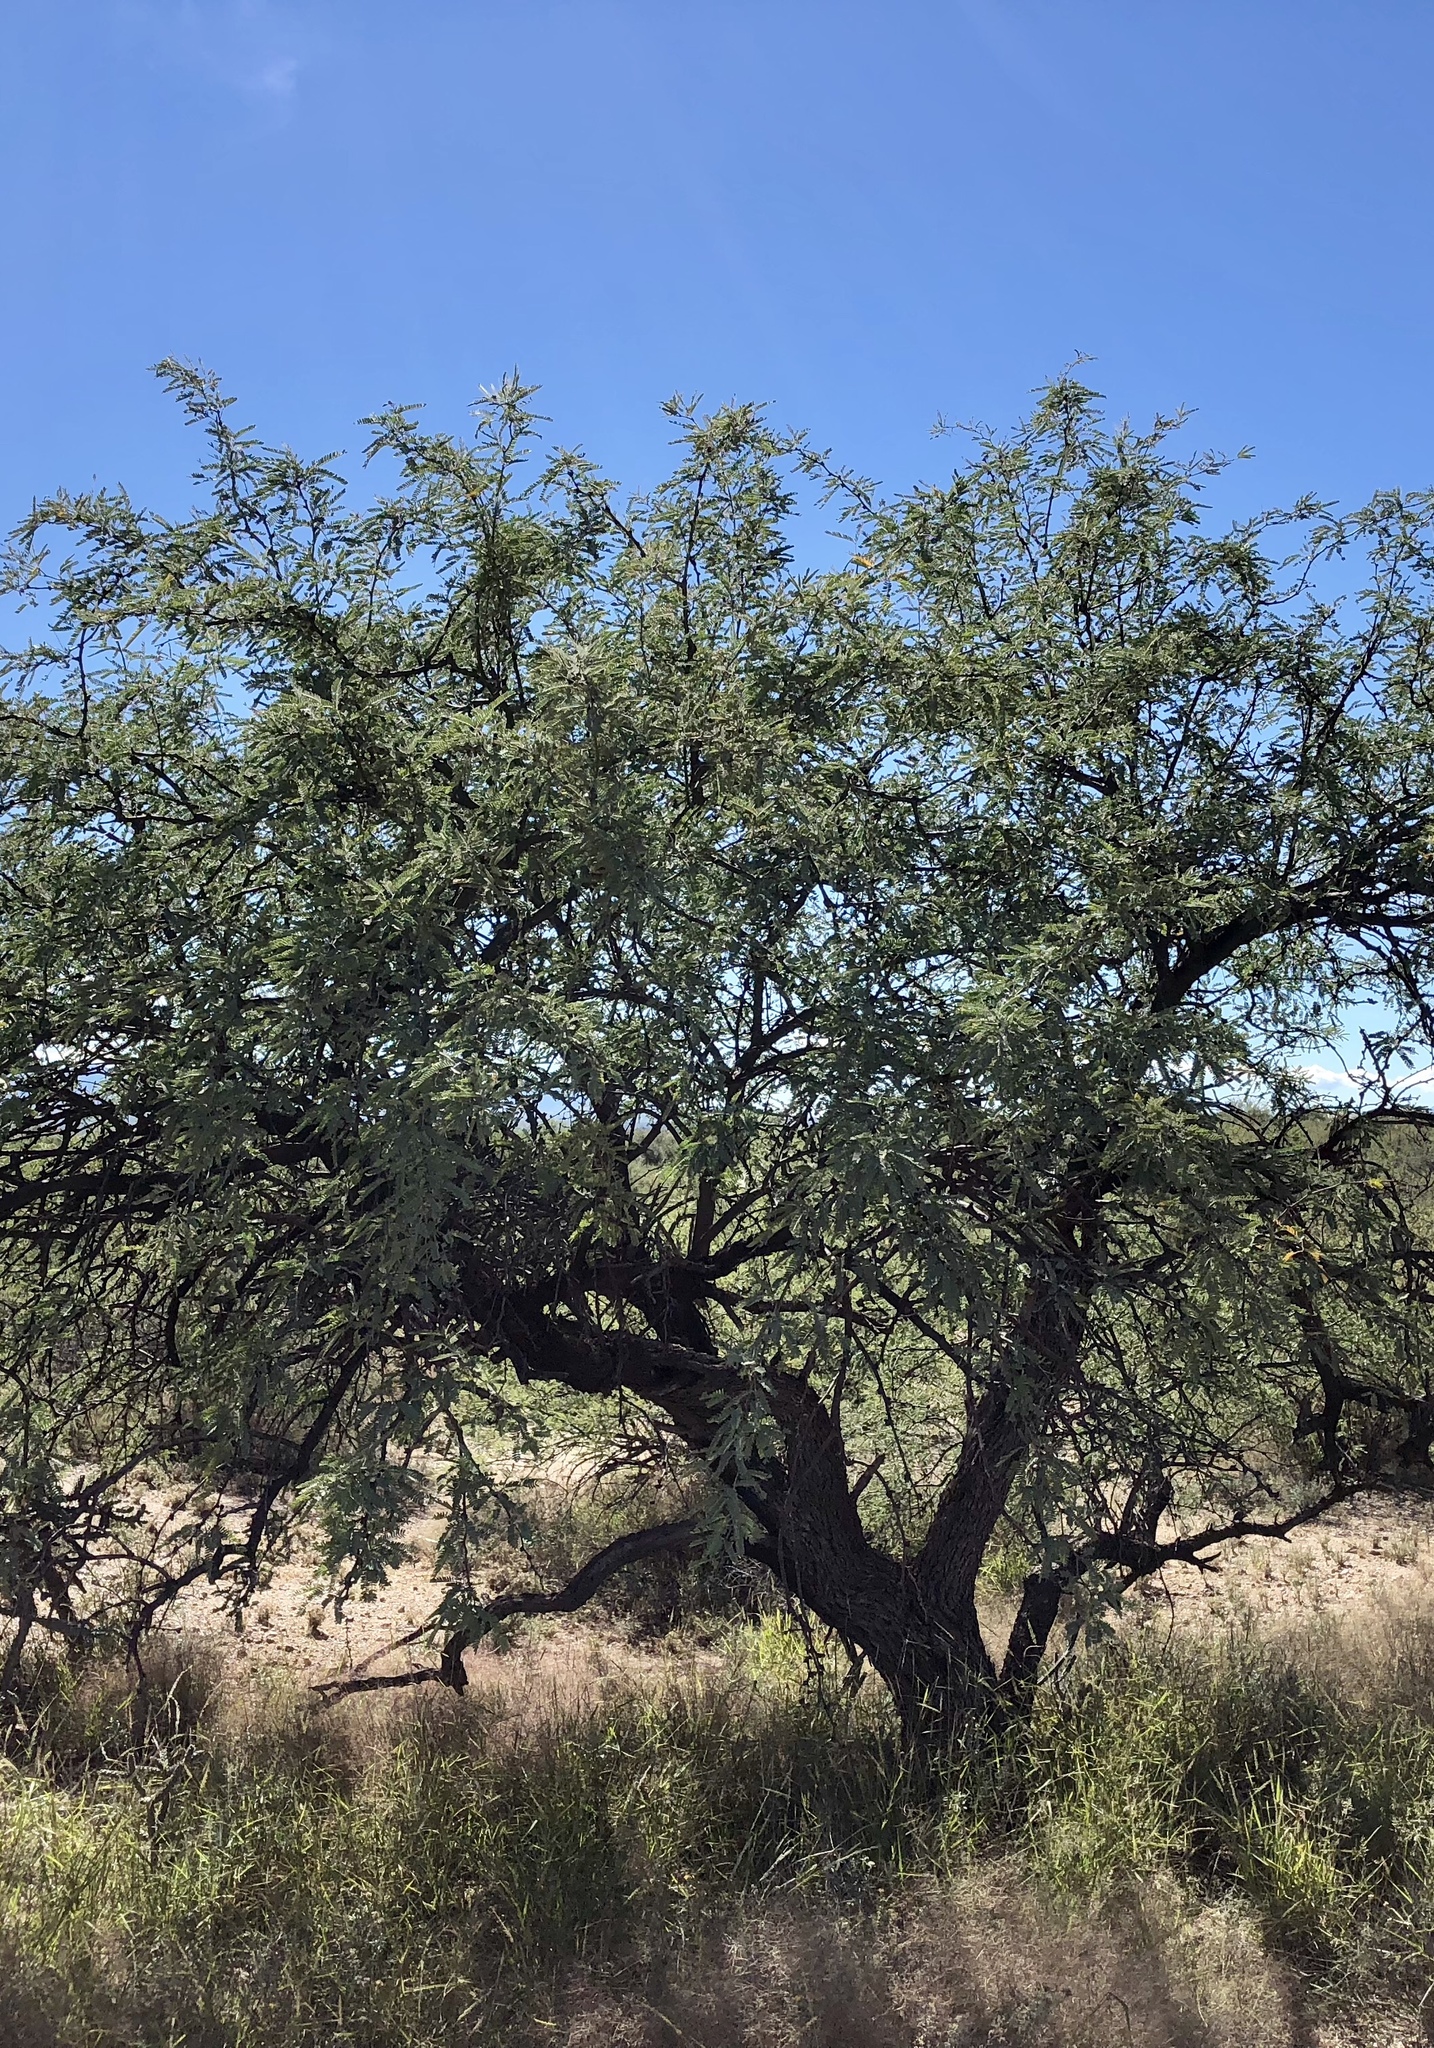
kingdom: Plantae
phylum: Tracheophyta
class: Magnoliopsida
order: Fabales
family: Fabaceae
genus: Prosopis
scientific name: Prosopis velutina
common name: Velvet mesquite
